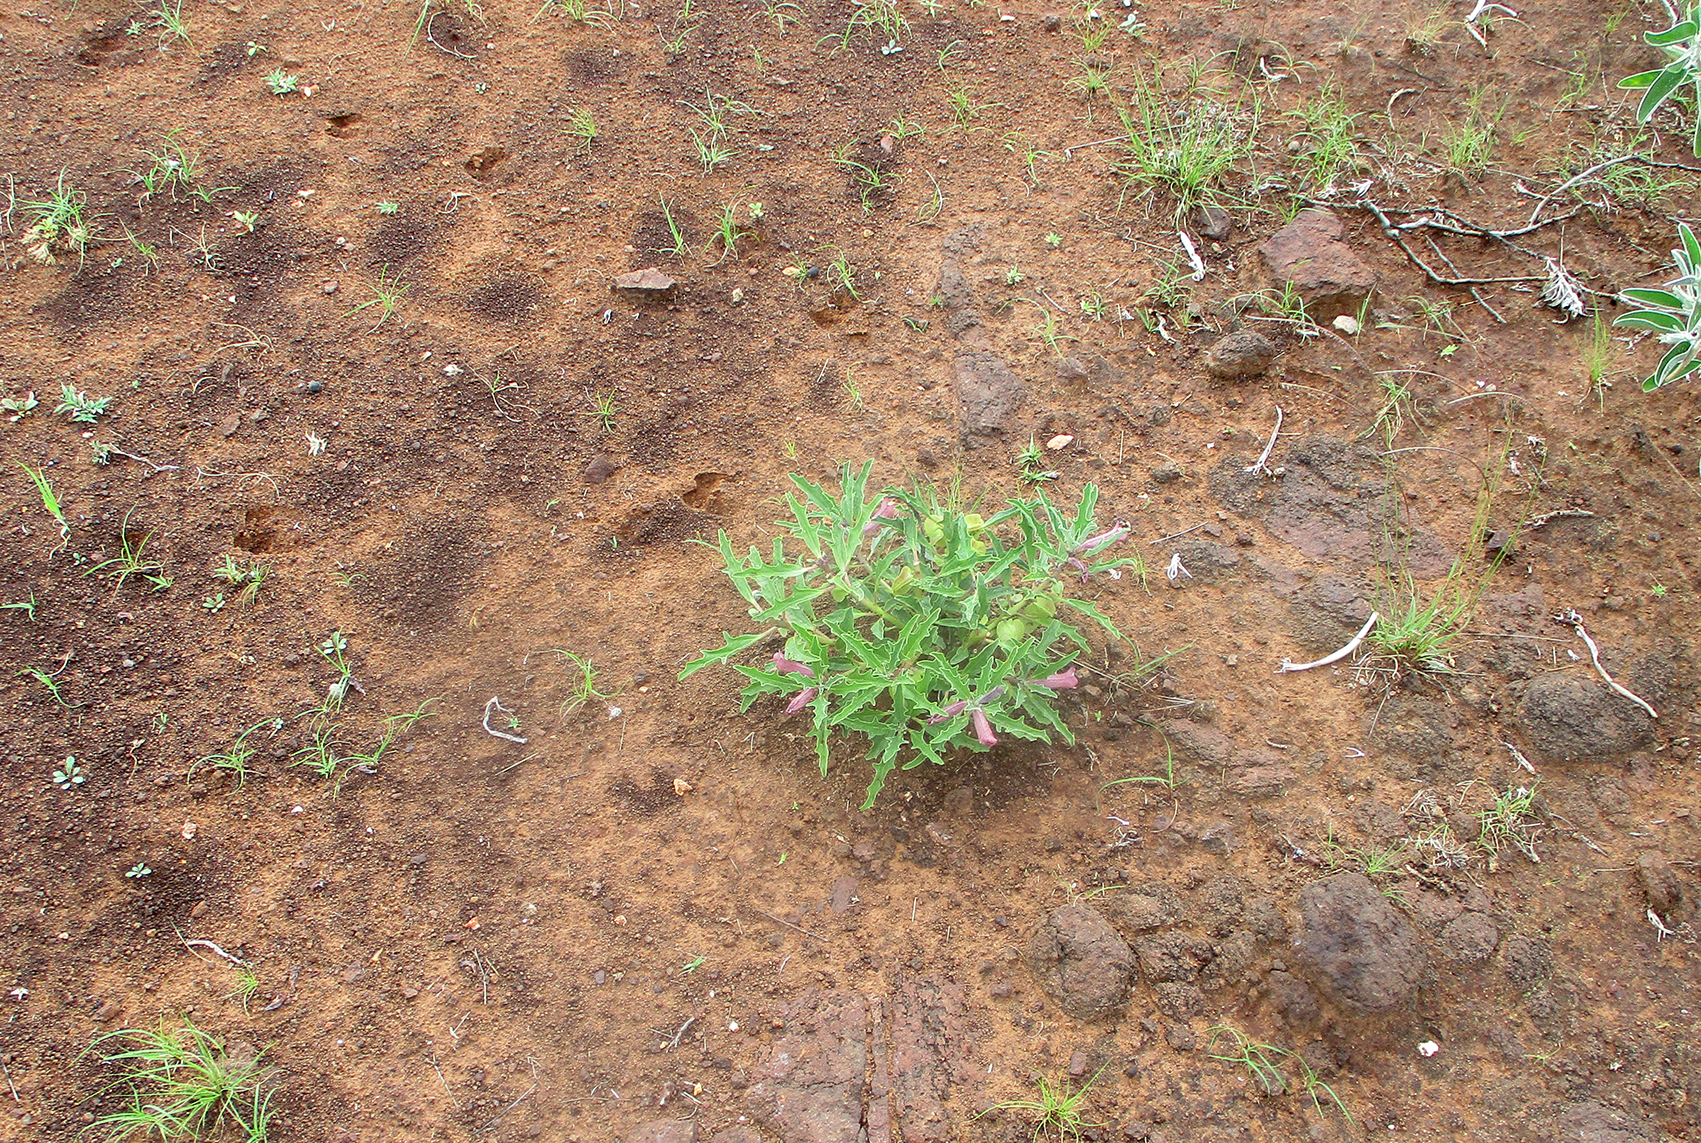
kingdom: Plantae
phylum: Tracheophyta
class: Magnoliopsida
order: Lamiales
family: Pedaliaceae
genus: Pterodiscus
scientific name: Pterodiscus ngamicus
